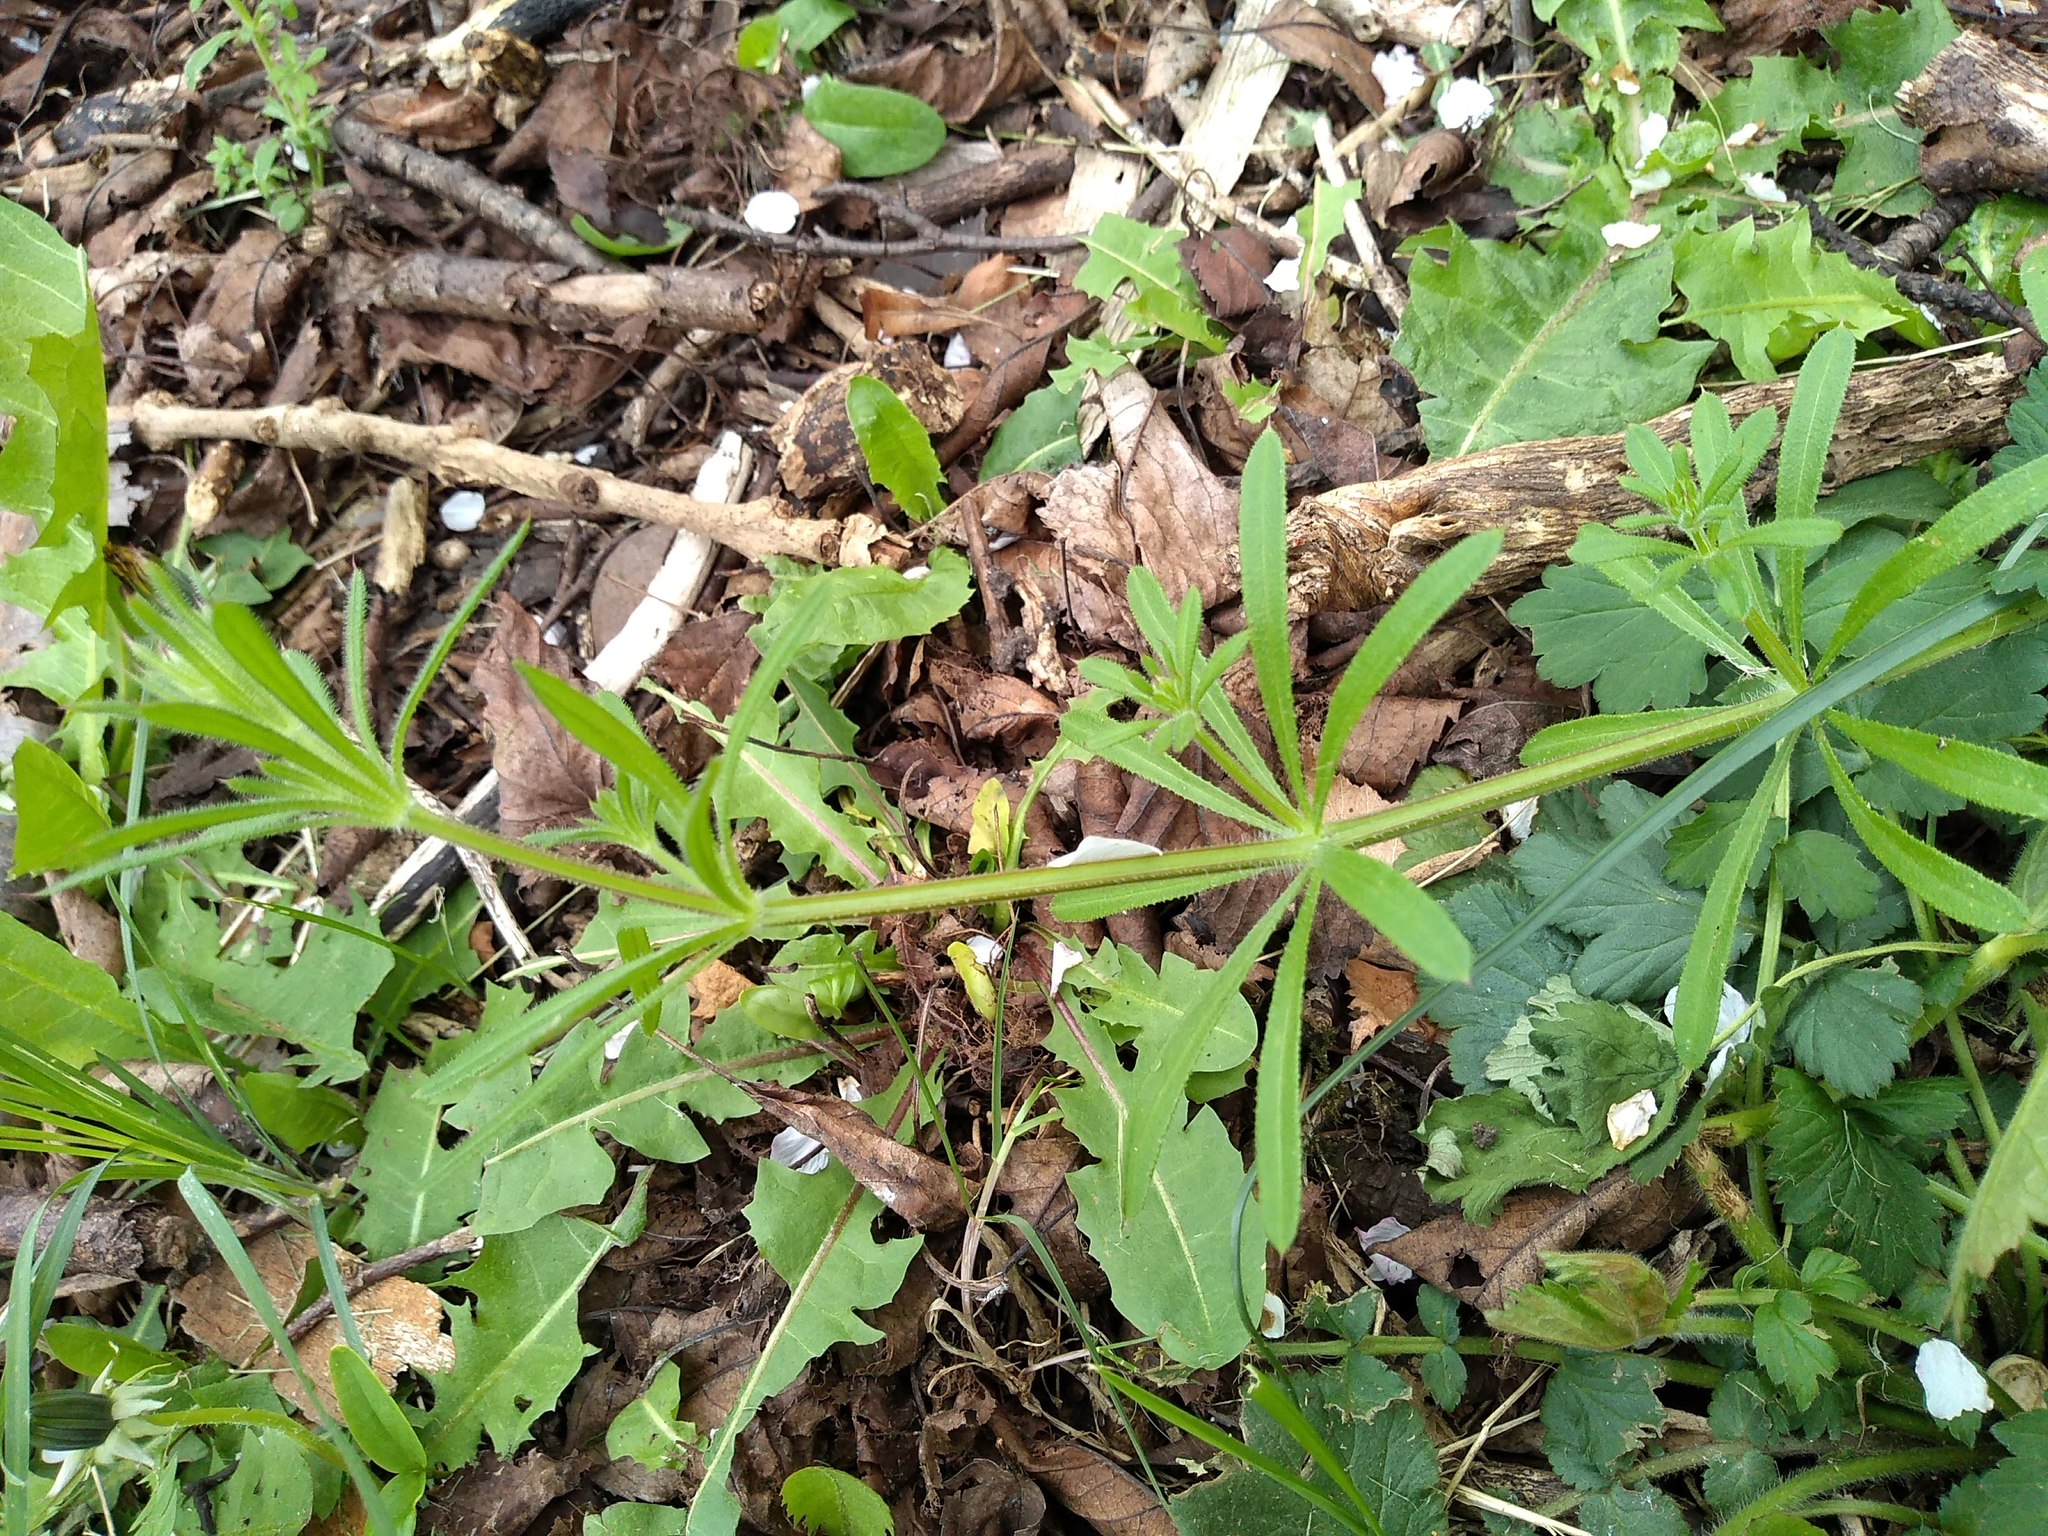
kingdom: Plantae
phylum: Tracheophyta
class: Magnoliopsida
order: Gentianales
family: Rubiaceae
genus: Galium
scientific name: Galium aparine
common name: Cleavers
